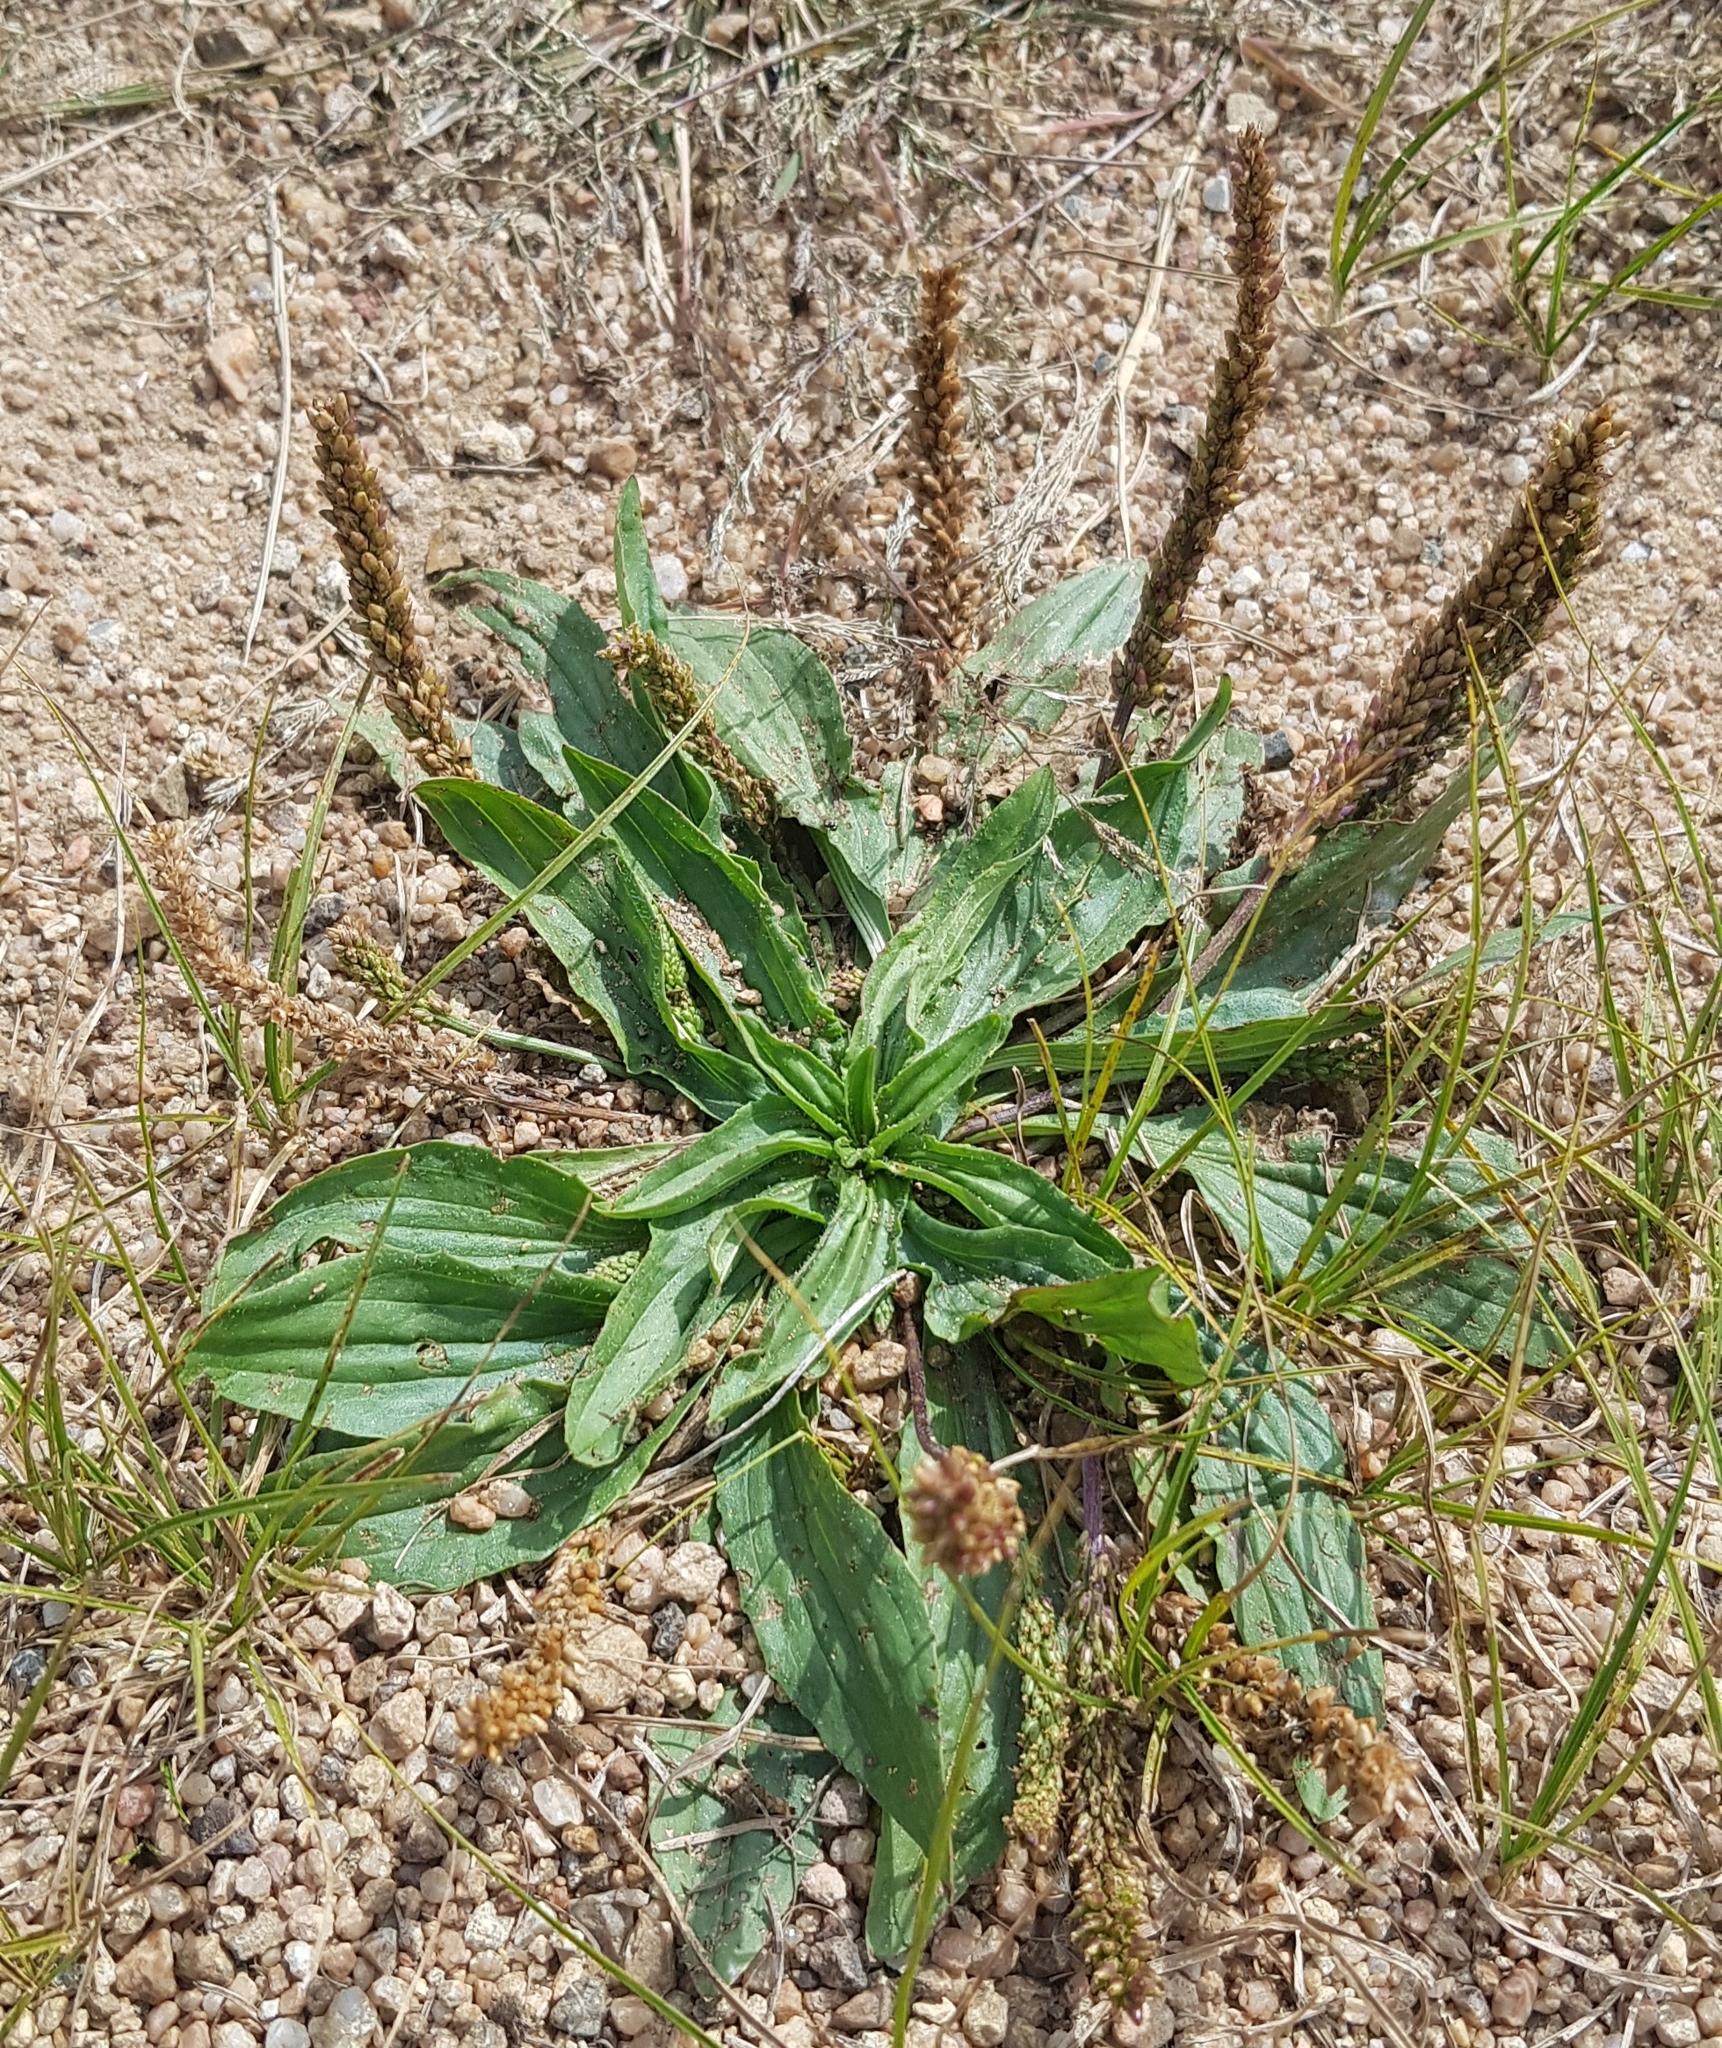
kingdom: Plantae
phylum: Tracheophyta
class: Magnoliopsida
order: Lamiales
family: Plantaginaceae
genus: Plantago
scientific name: Plantago depressa
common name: Depressed plantain
